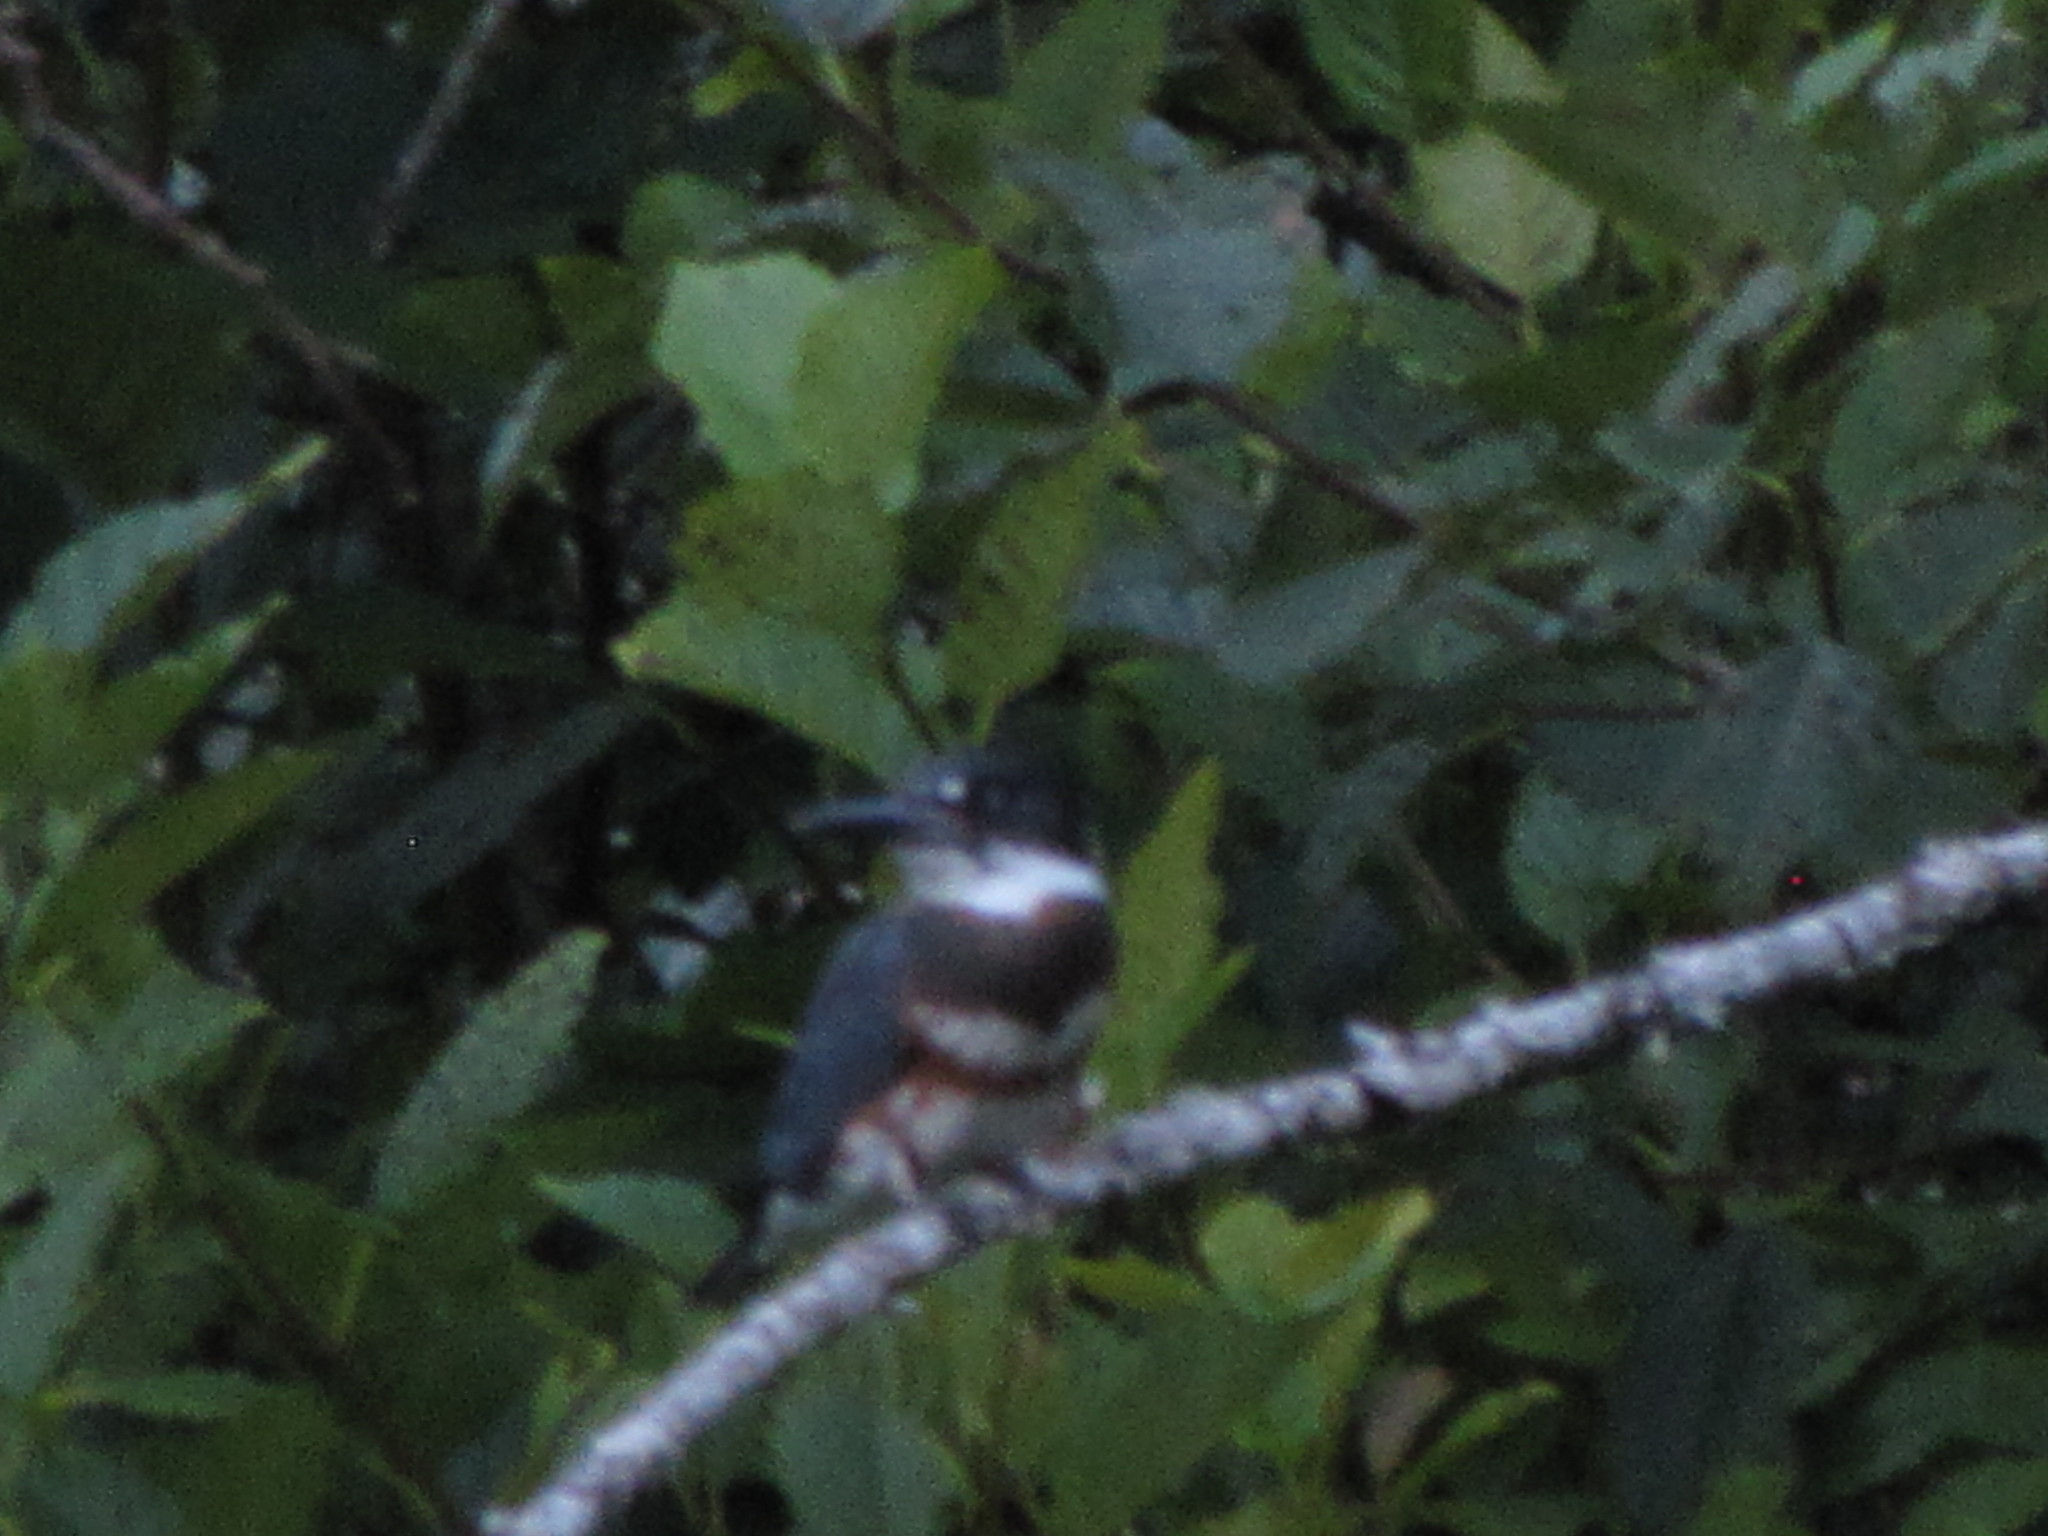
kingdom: Animalia
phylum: Chordata
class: Aves
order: Coraciiformes
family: Alcedinidae
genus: Megaceryle
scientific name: Megaceryle alcyon
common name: Belted kingfisher
